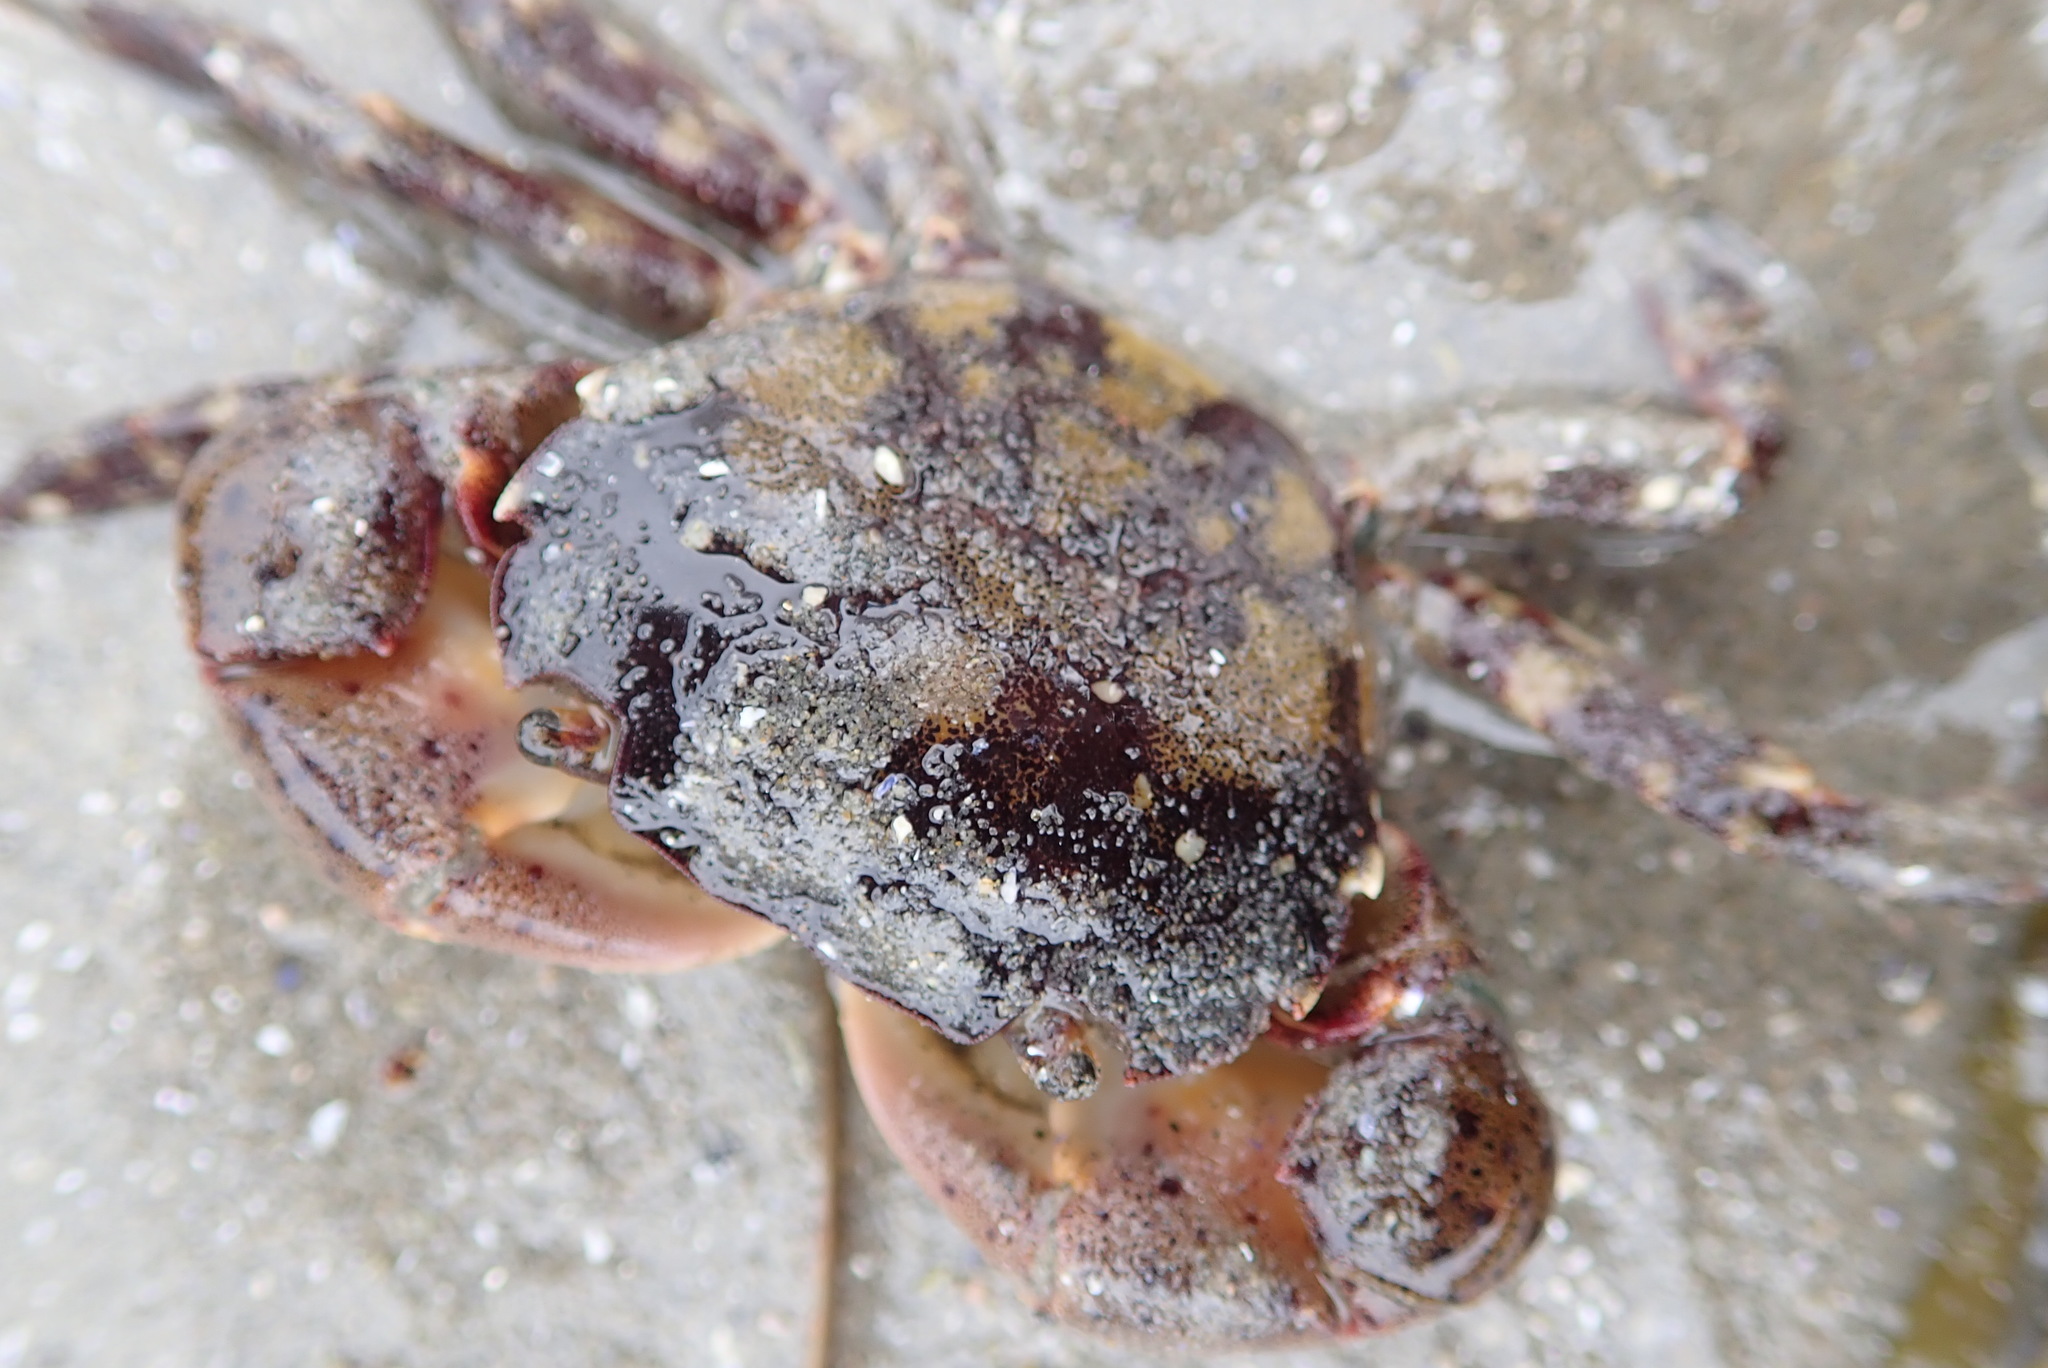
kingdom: Animalia
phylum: Arthropoda
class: Malacostraca
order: Decapoda
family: Varunidae
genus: Hemigrapsus
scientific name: Hemigrapsus sanguineus
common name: Asian shore crab
